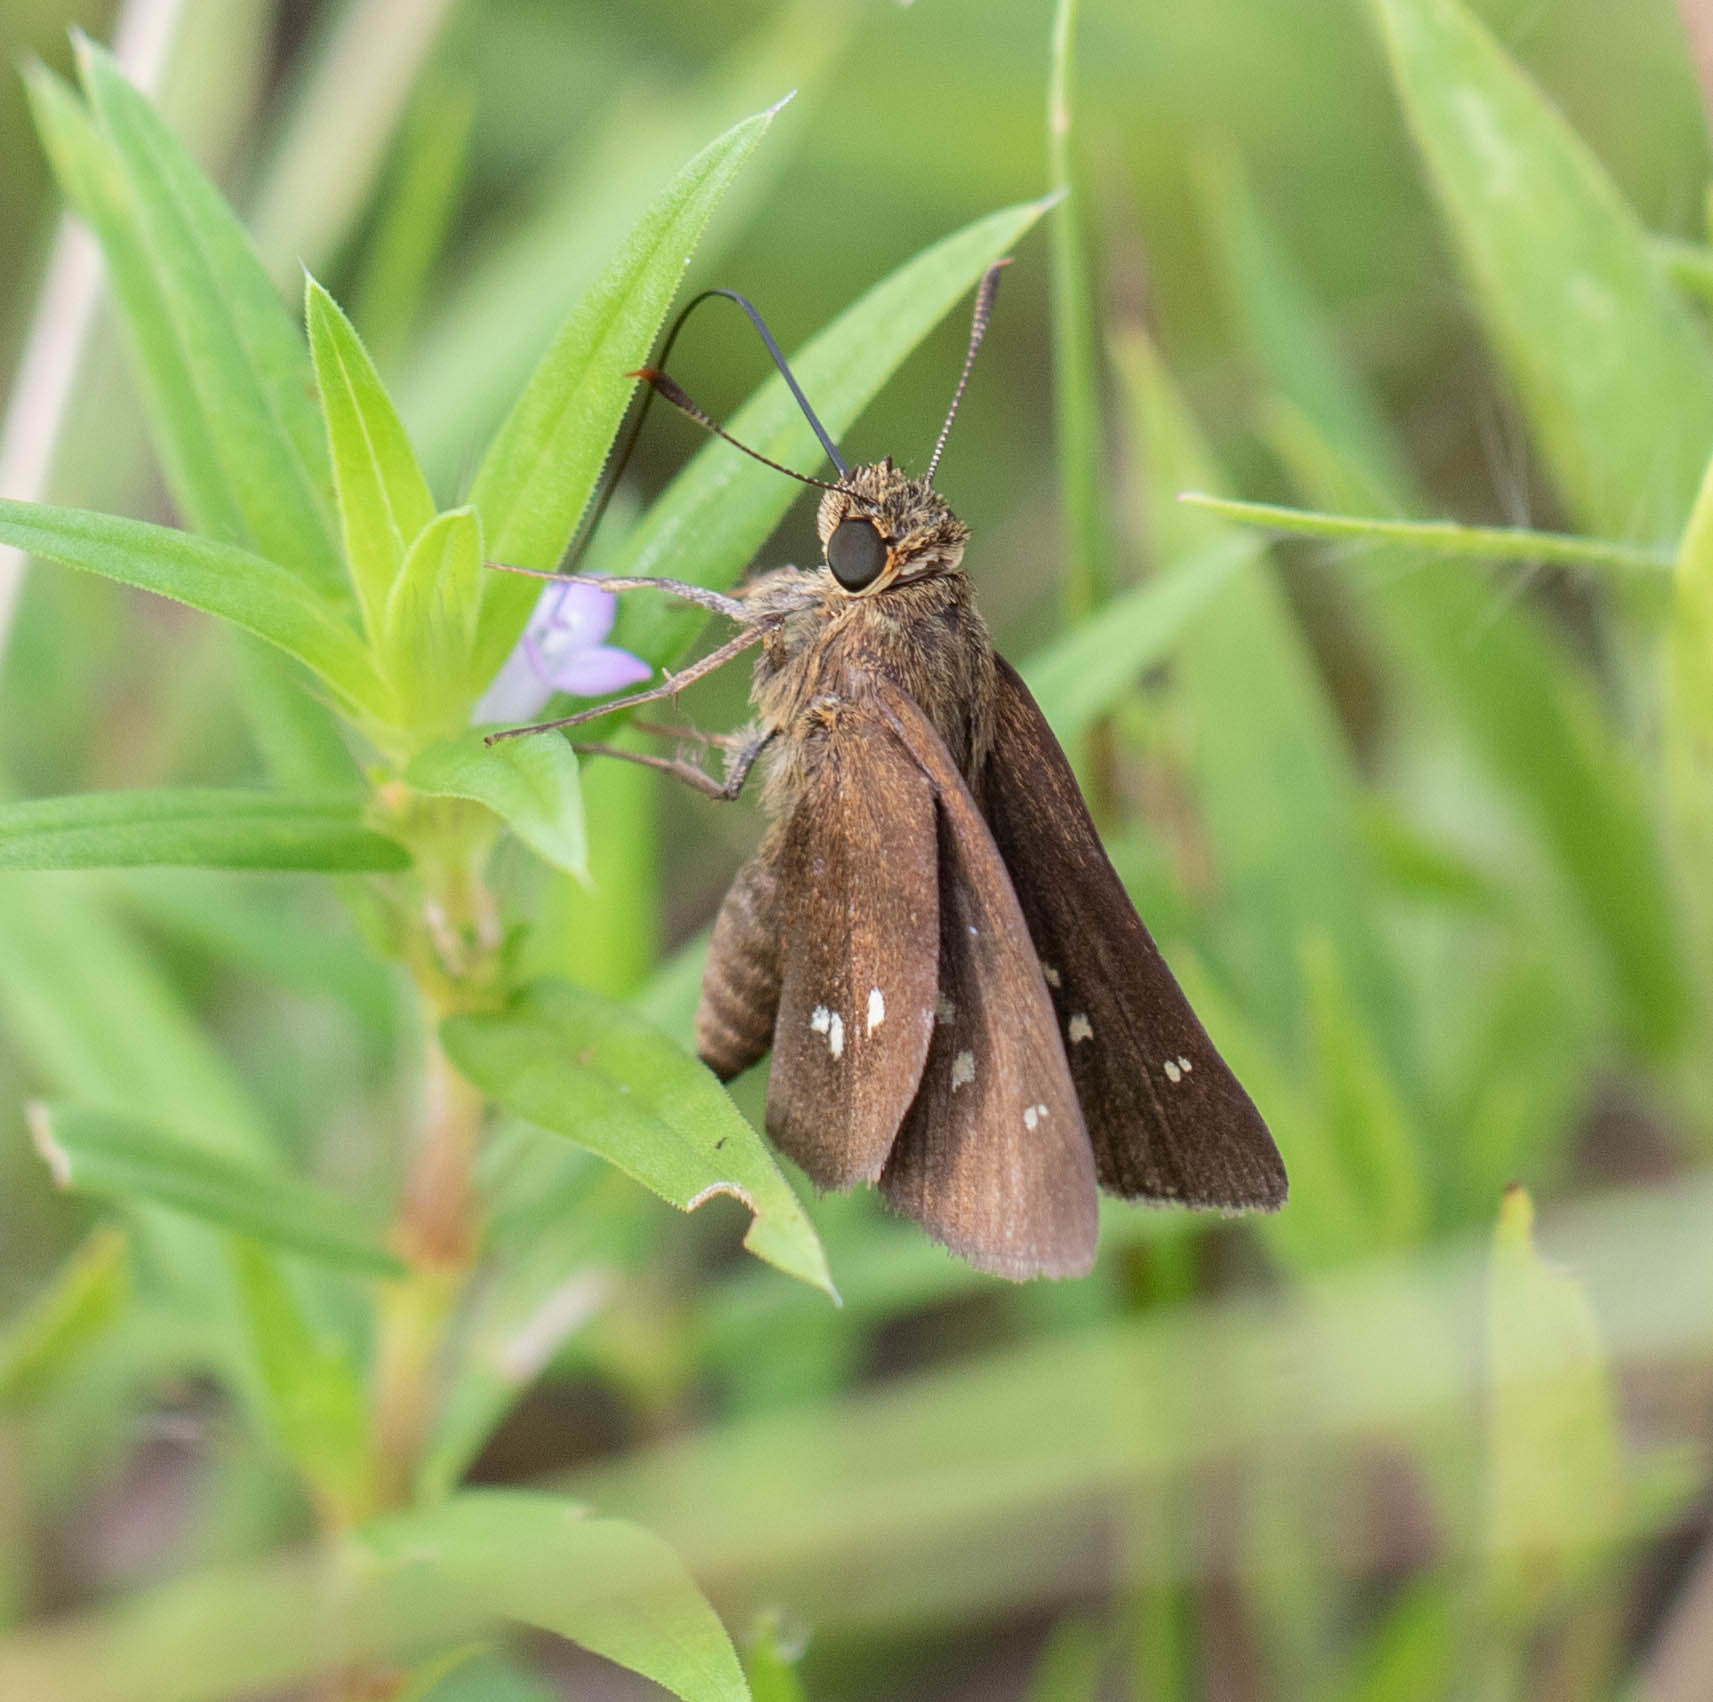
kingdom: Animalia
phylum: Arthropoda
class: Insecta
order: Lepidoptera
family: Hesperiidae
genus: Oligoria
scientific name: Oligoria maculata
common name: Twin-spot skipper
